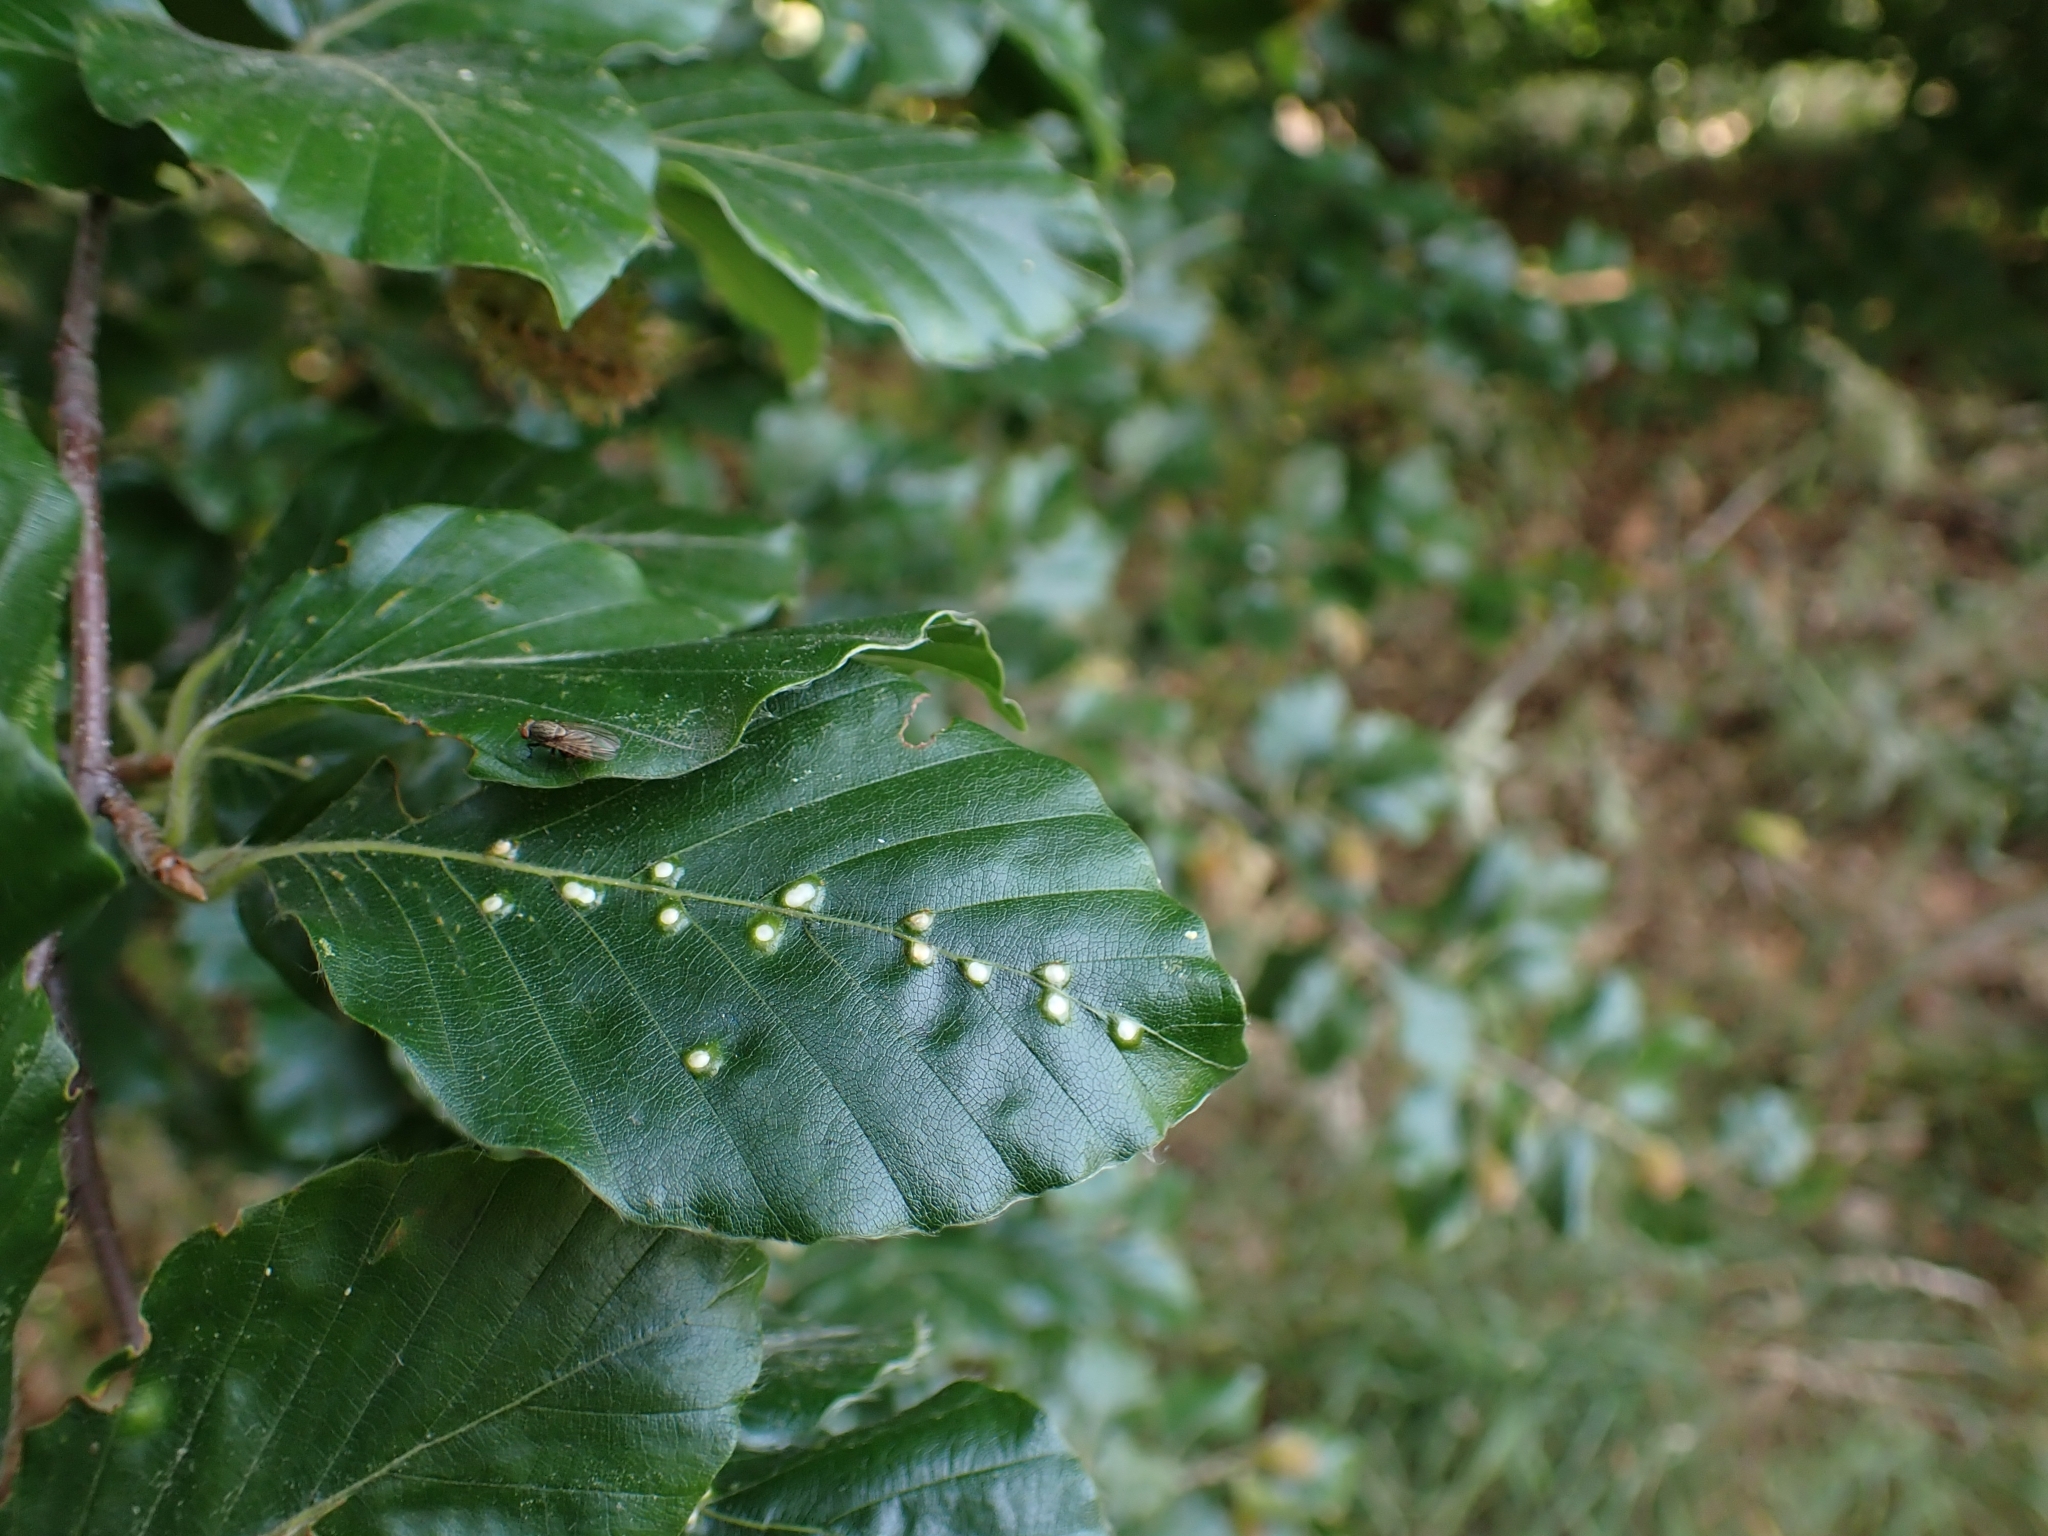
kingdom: Animalia
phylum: Arthropoda
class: Insecta
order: Diptera
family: Cecidomyiidae
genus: Hartigiola
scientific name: Hartigiola annulipes
